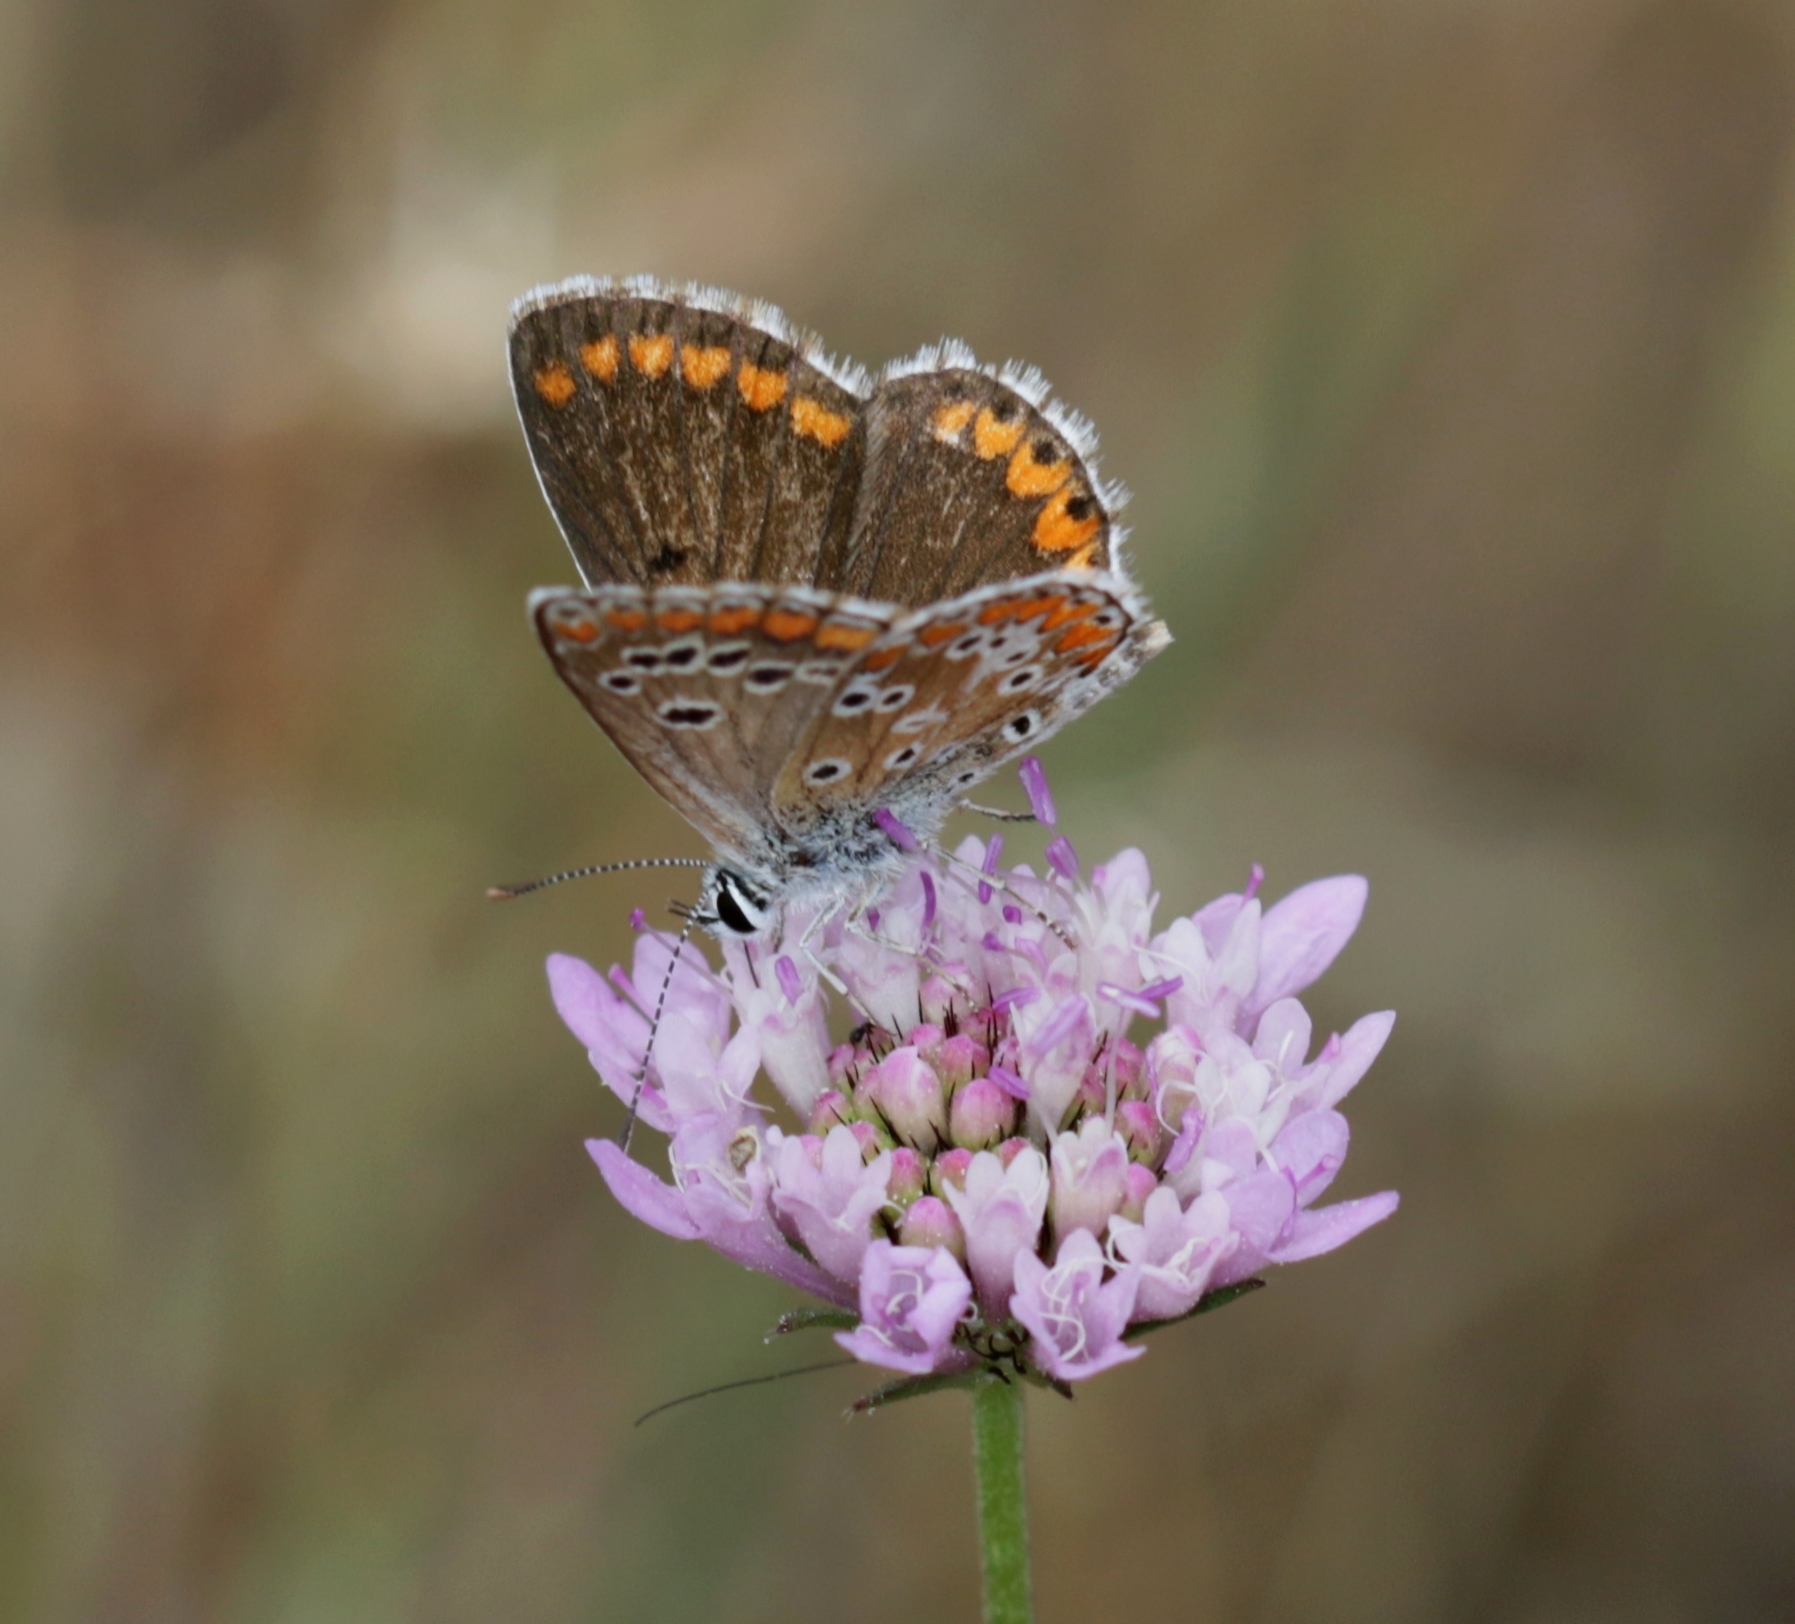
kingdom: Animalia
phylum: Arthropoda
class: Insecta
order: Lepidoptera
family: Lycaenidae
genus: Aricia
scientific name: Aricia cramera
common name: Eschscholtz´s brown  argus
